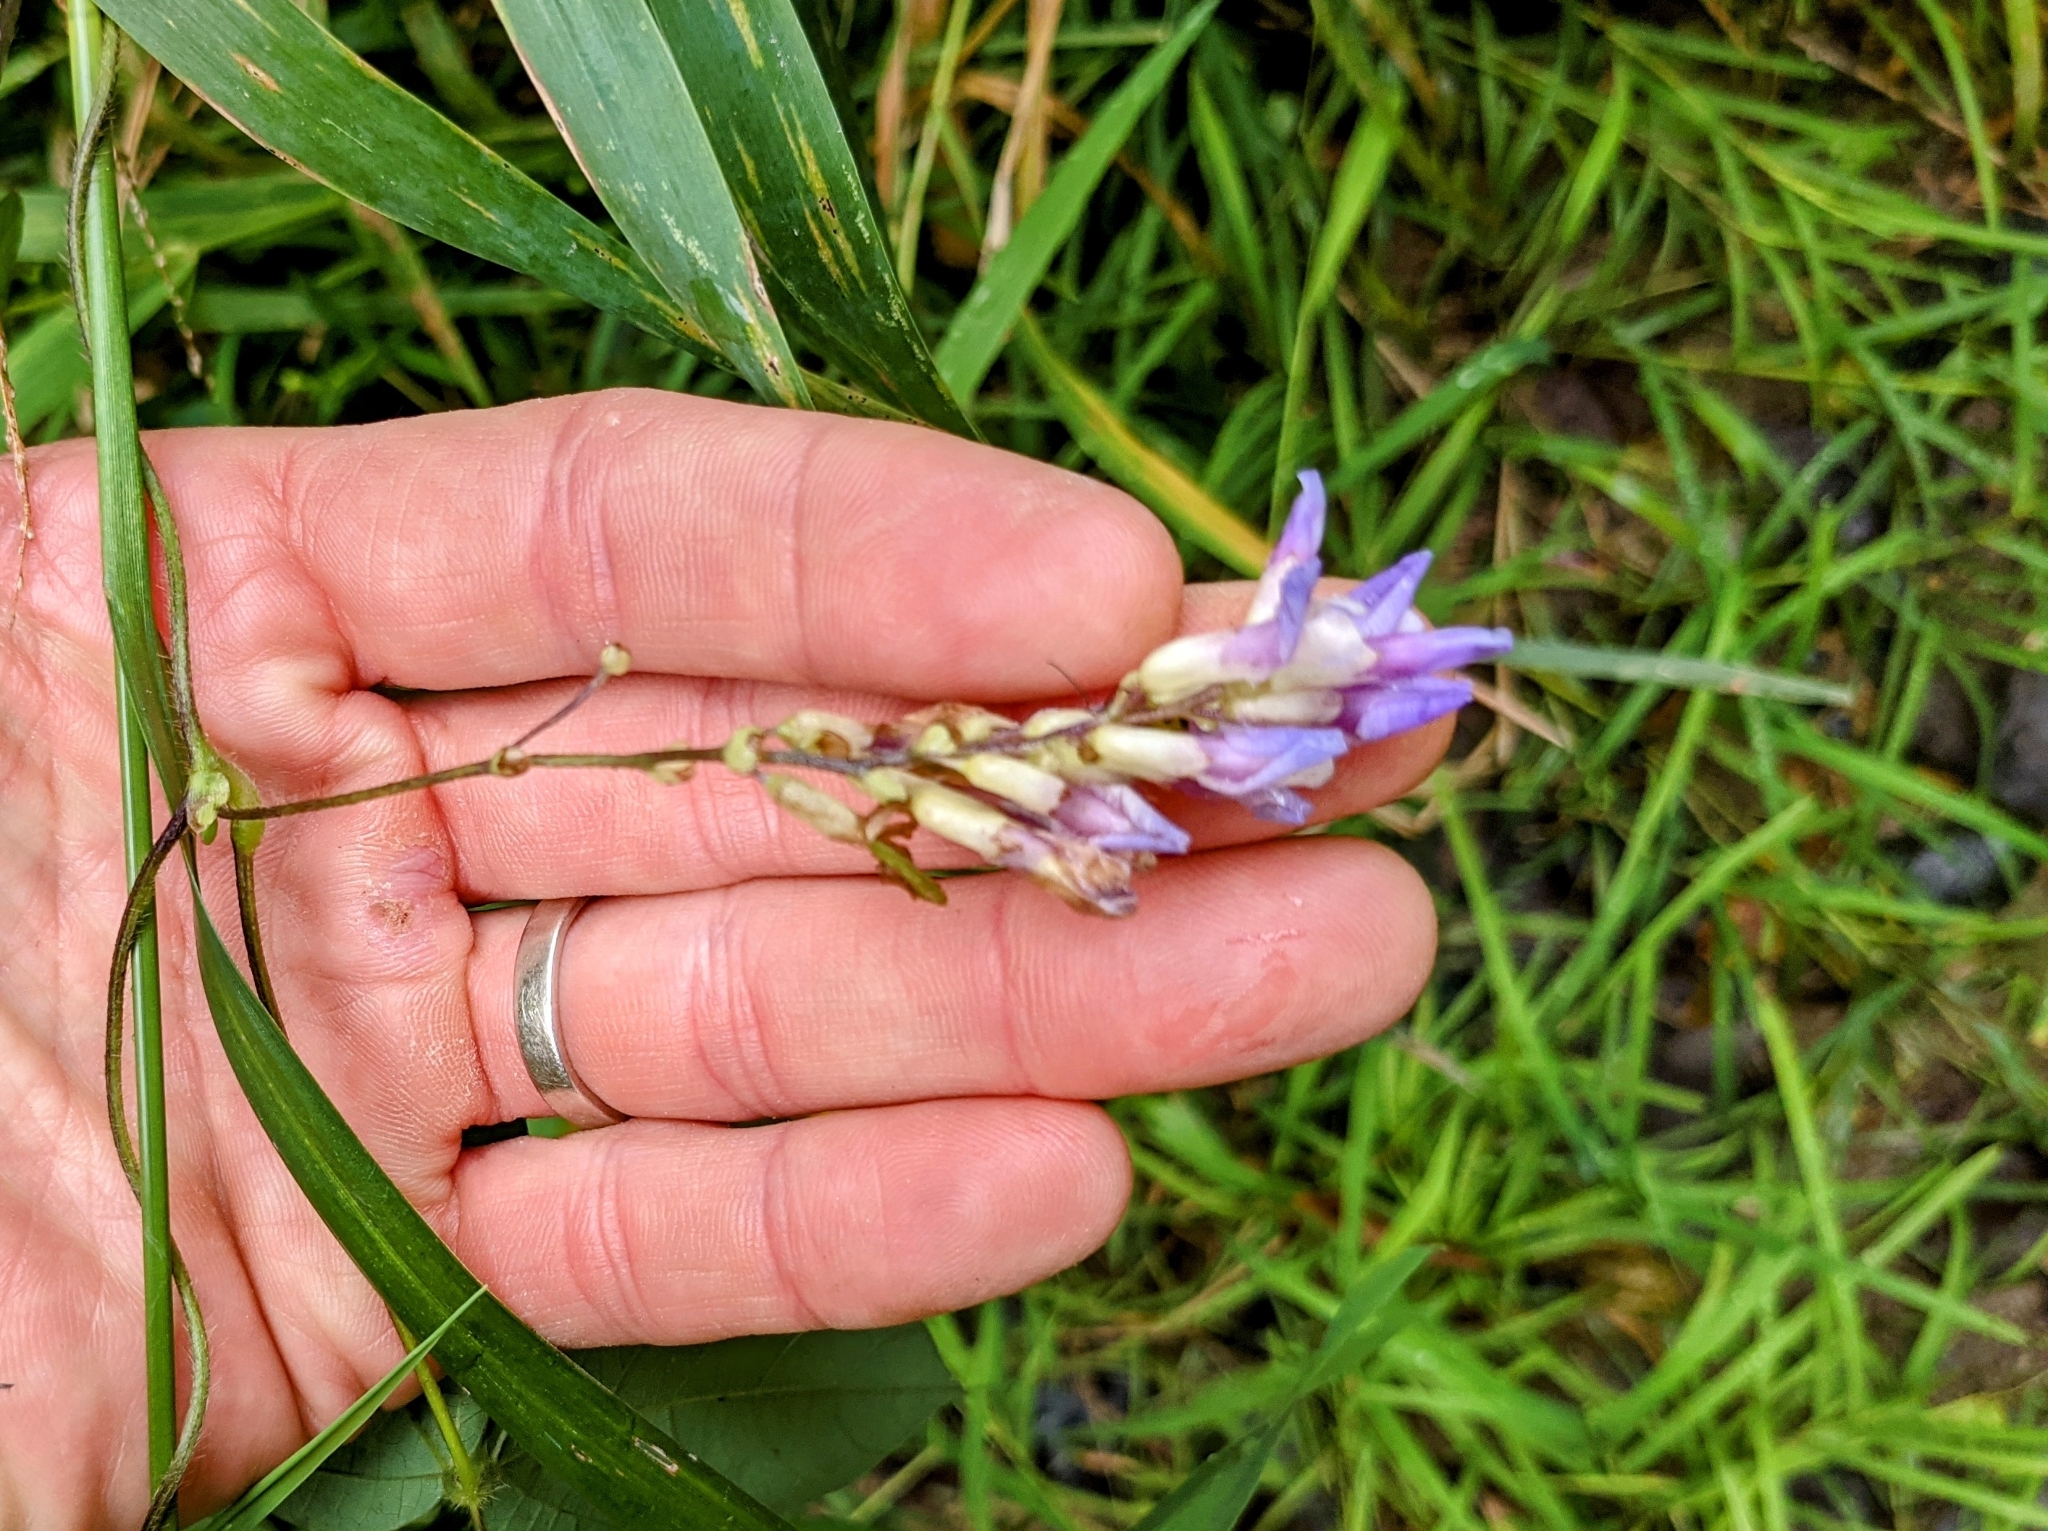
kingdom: Plantae
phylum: Tracheophyta
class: Magnoliopsida
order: Fabales
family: Fabaceae
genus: Amphicarpaea
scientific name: Amphicarpaea bracteata
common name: American hog peanut
